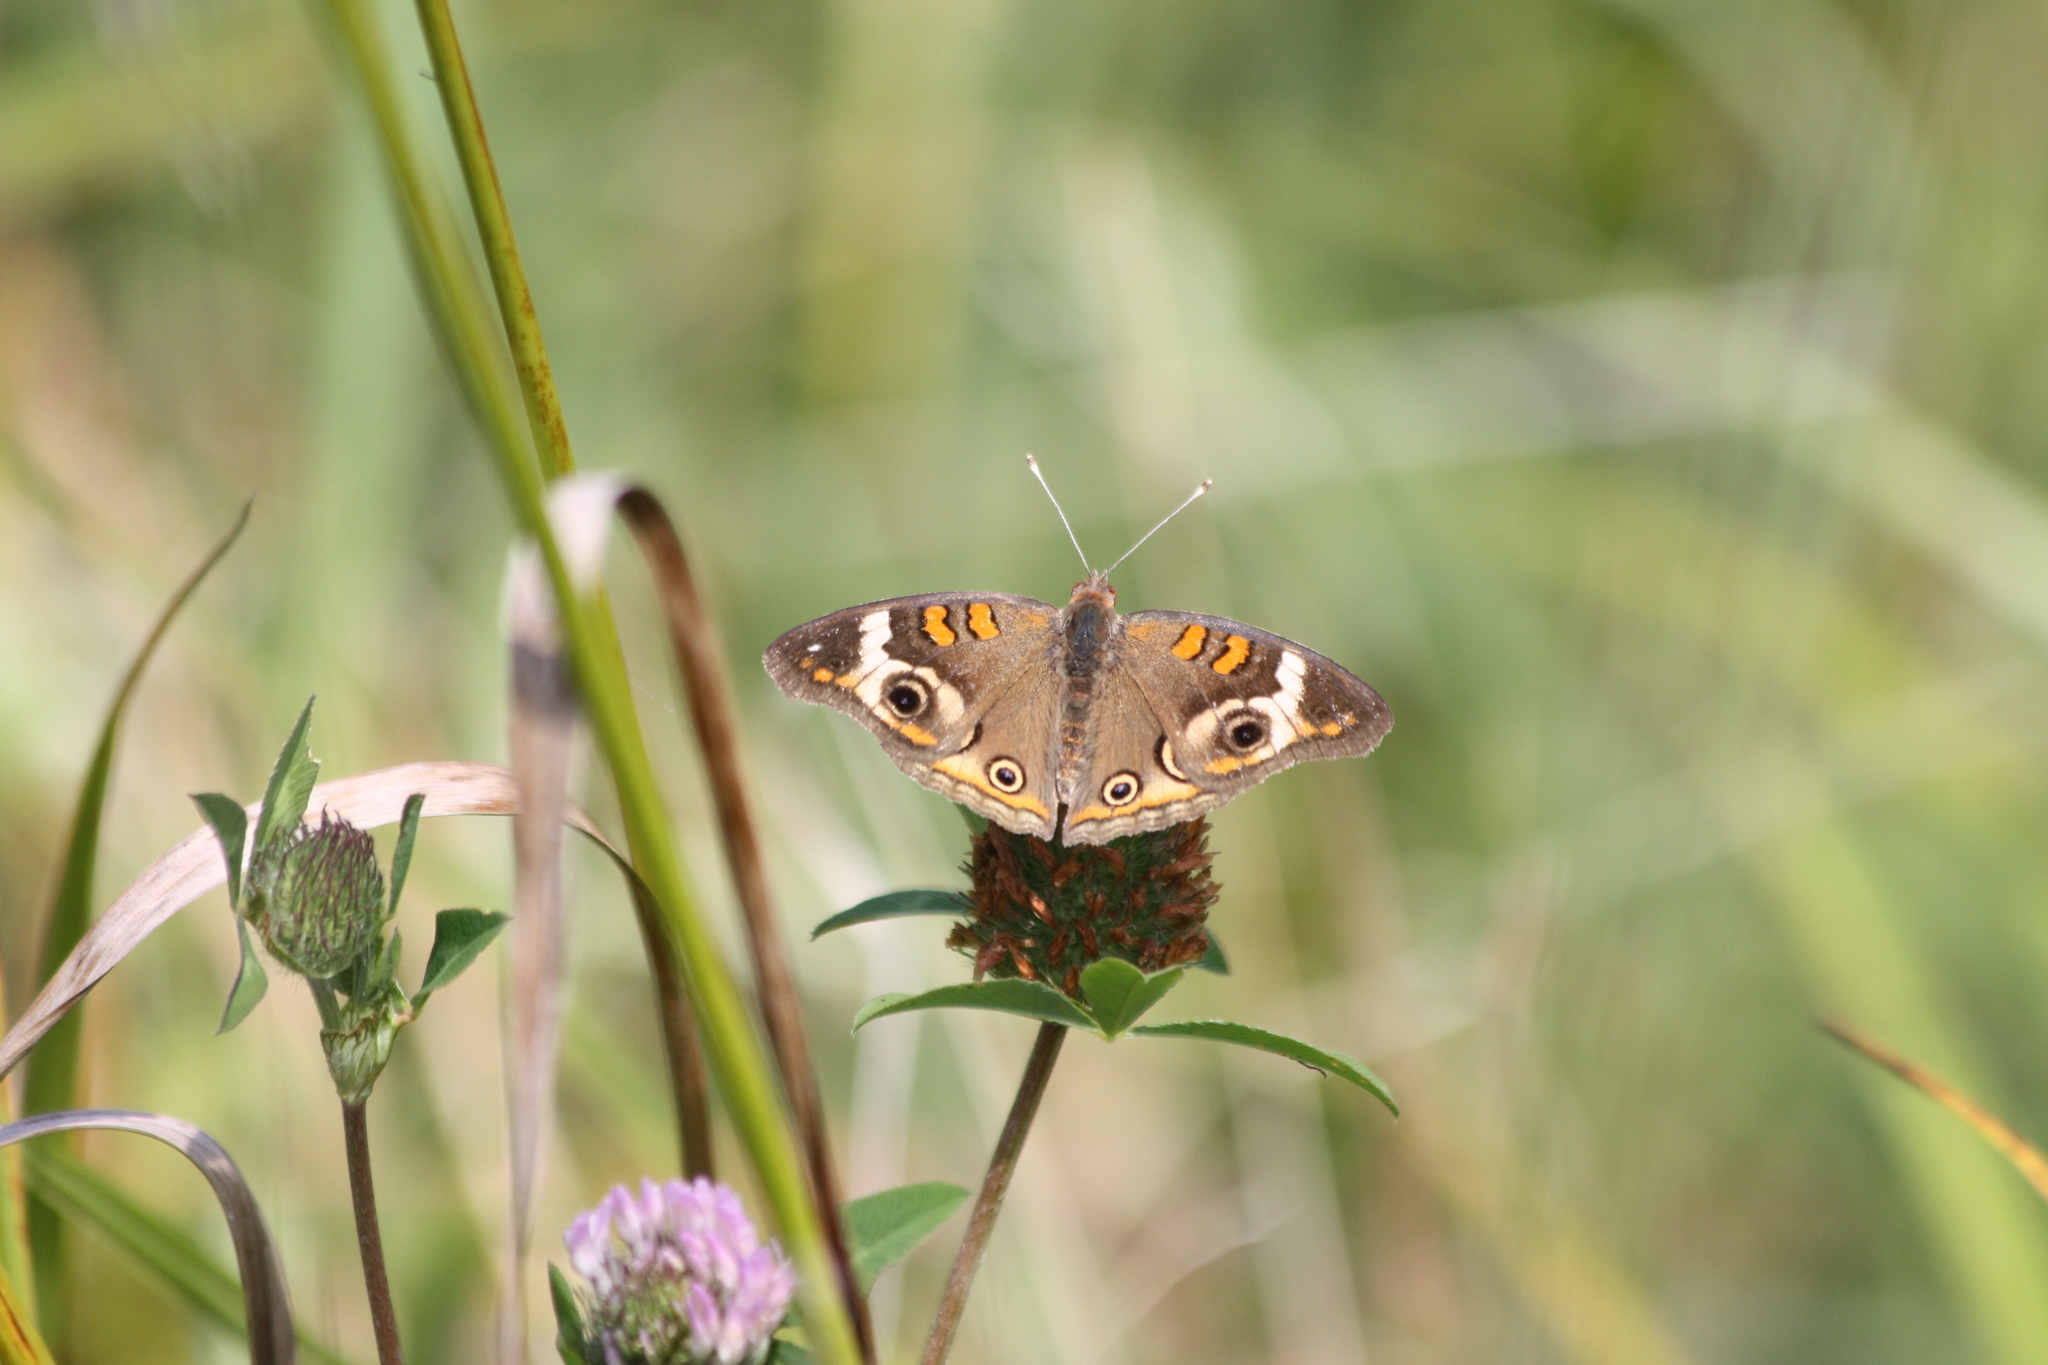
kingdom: Animalia
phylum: Arthropoda
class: Insecta
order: Lepidoptera
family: Nymphalidae
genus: Junonia
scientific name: Junonia coenia
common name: Common buckeye
